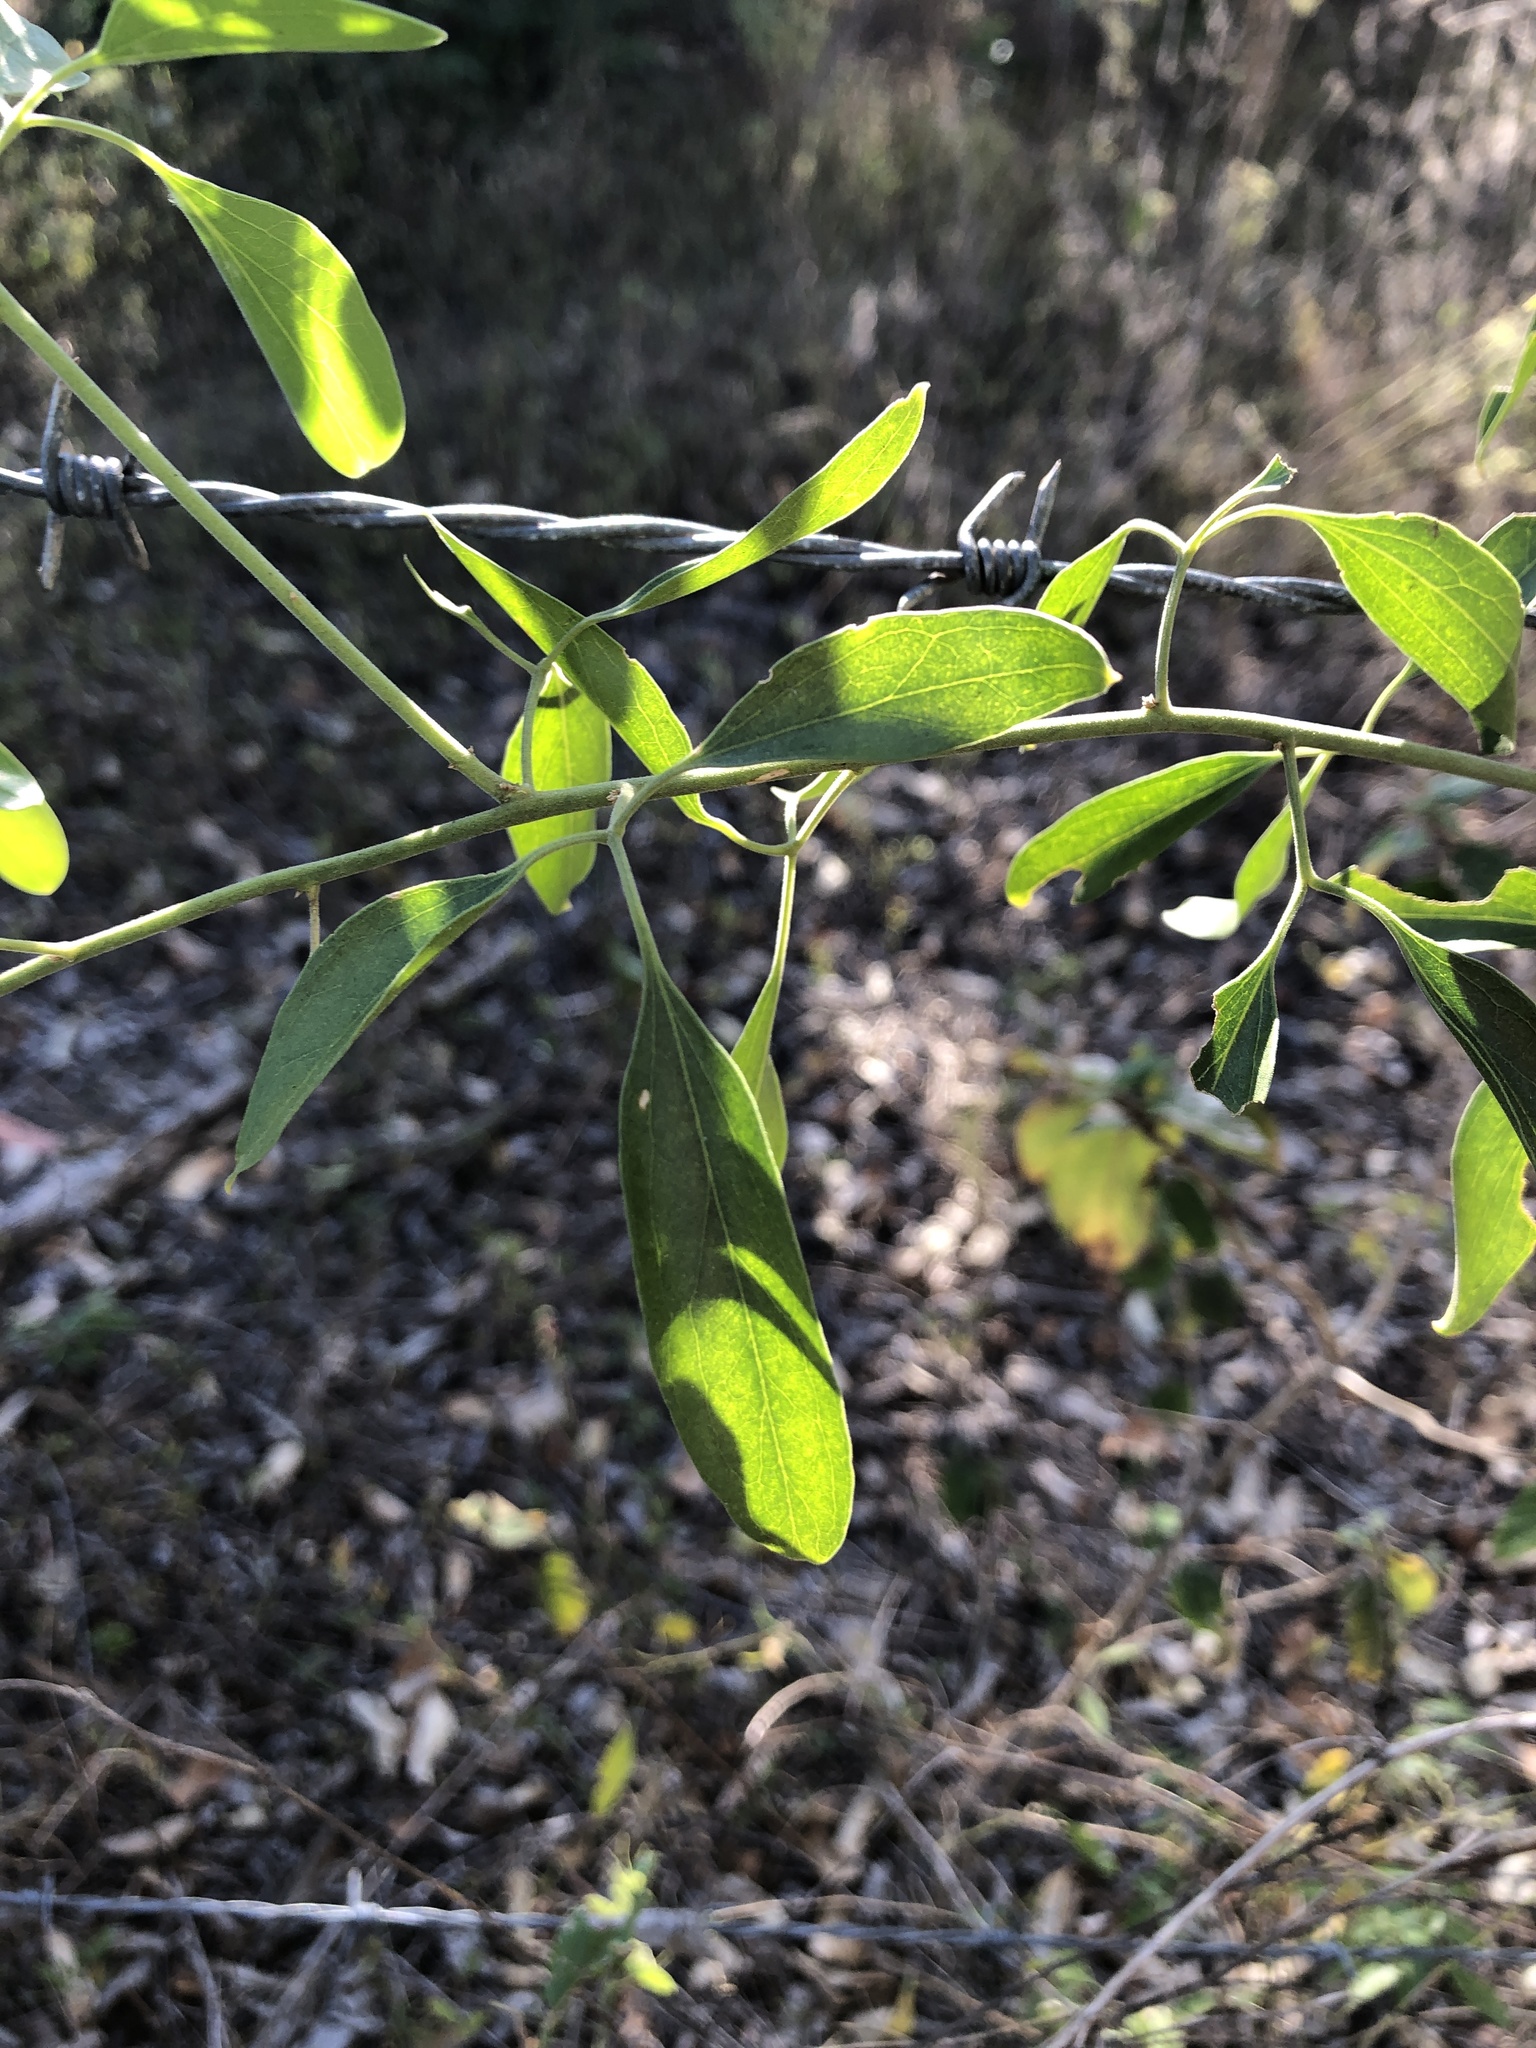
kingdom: Plantae
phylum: Tracheophyta
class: Magnoliopsida
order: Lamiales
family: Oleaceae
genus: Jasminum
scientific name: Jasminum didymum
